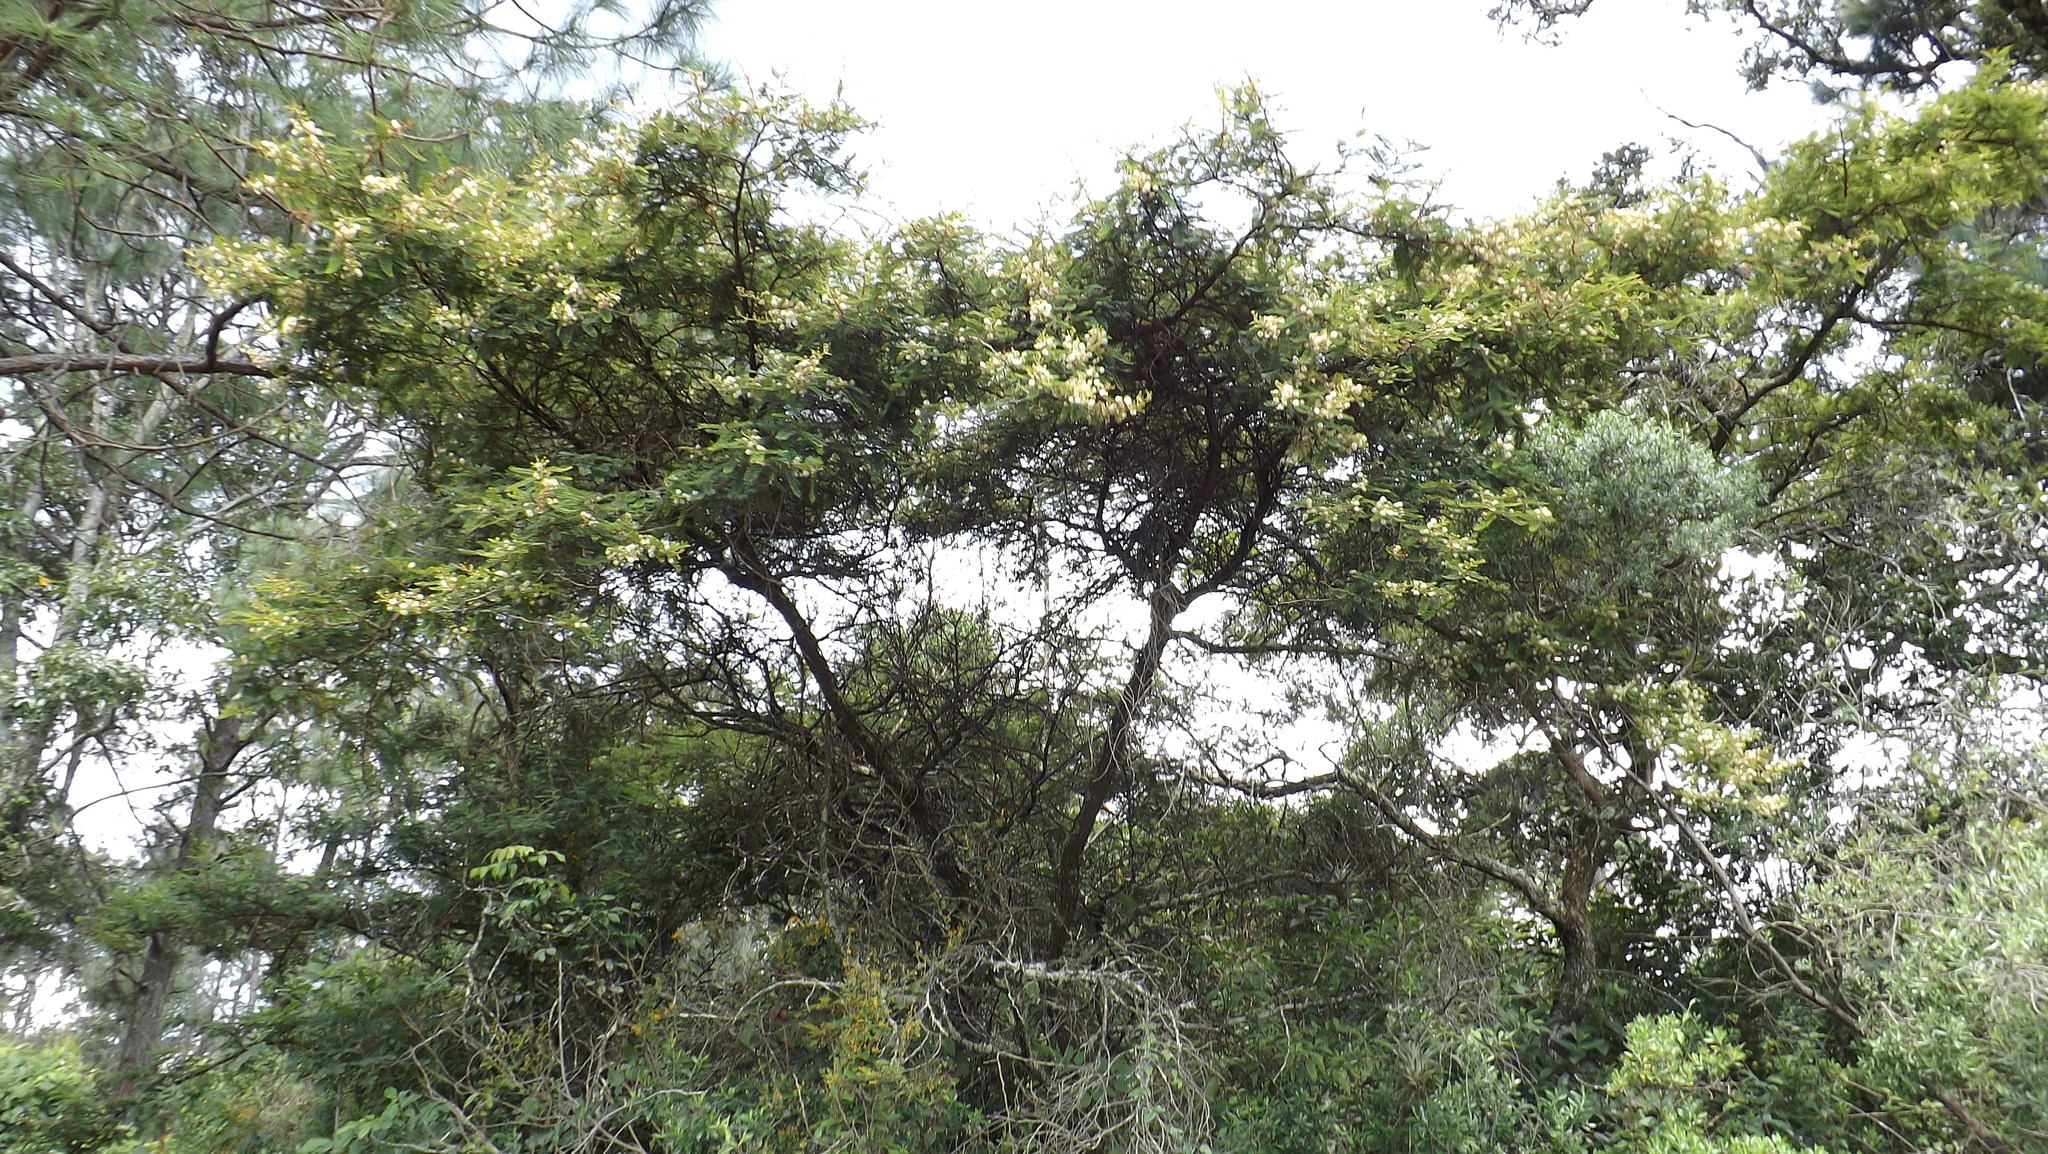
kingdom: Plantae
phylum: Tracheophyta
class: Magnoliopsida
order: Fabales
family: Fabaceae
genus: Mimosa
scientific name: Mimosa galeottii
